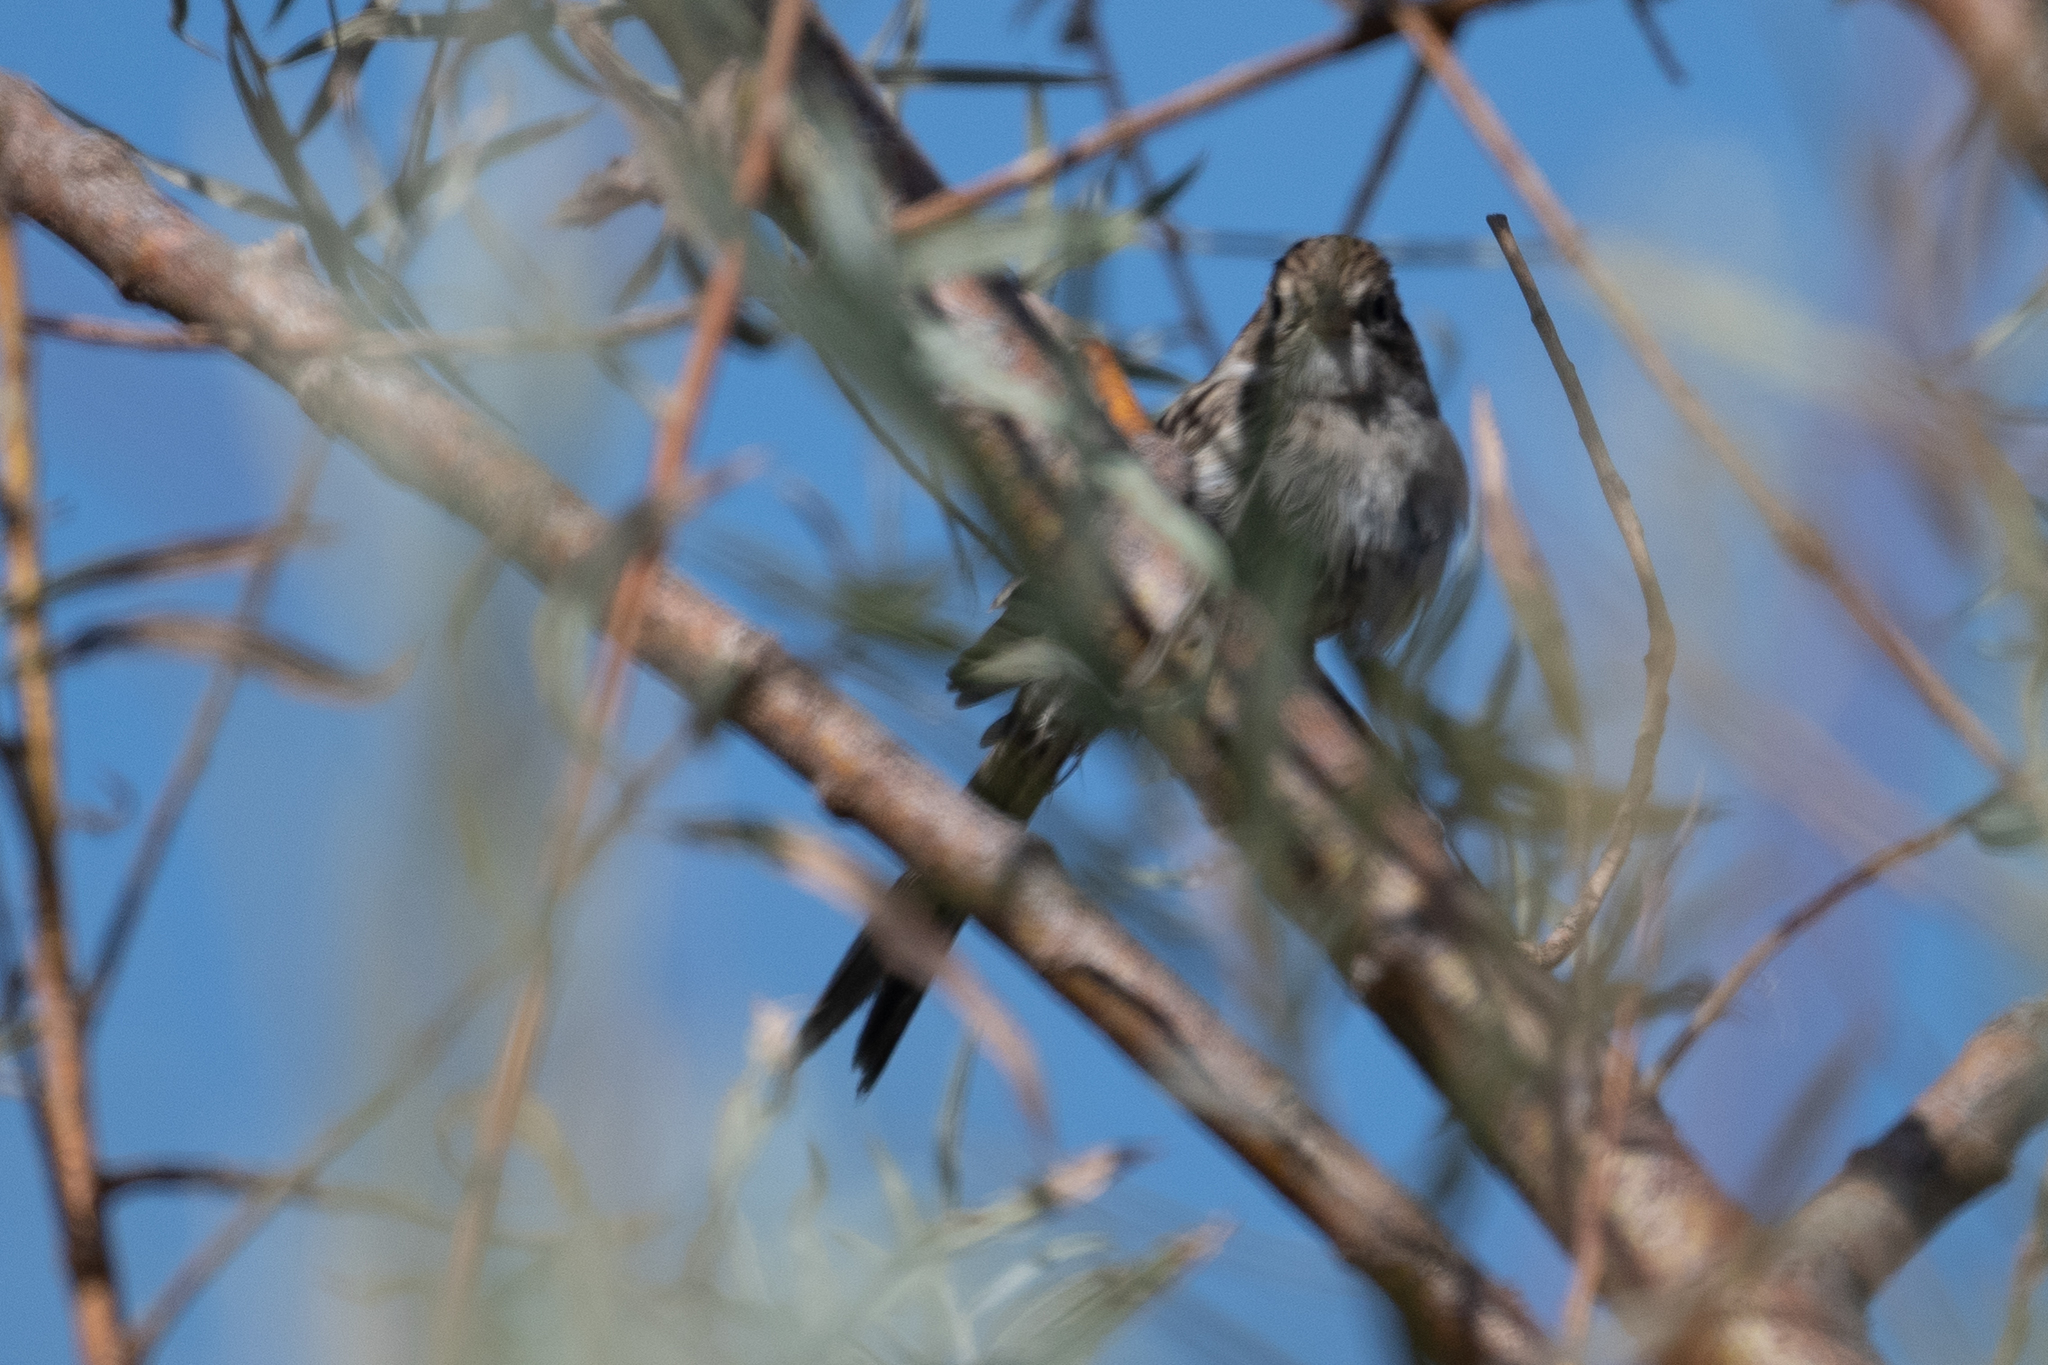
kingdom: Animalia
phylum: Chordata
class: Aves
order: Passeriformes
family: Passerellidae
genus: Spizella
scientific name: Spizella breweri
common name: Brewer's sparrow
